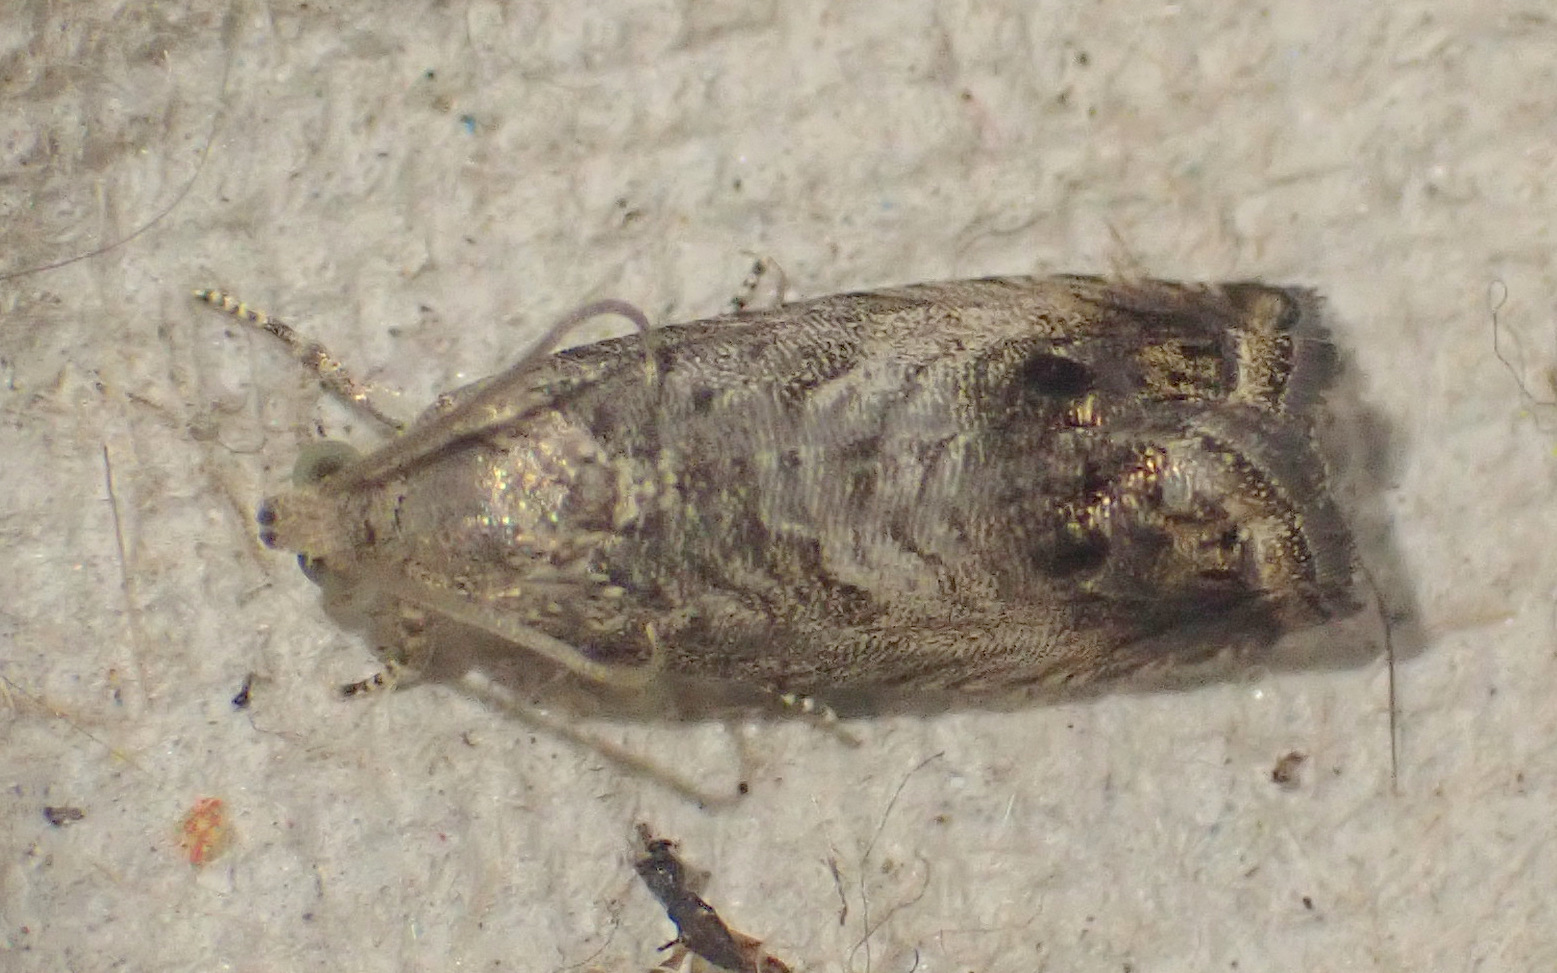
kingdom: Animalia
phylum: Arthropoda
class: Insecta
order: Lepidoptera
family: Tortricidae
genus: Cydia
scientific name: Cydia splendana
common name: De: kastanienwickler, eichenwickler es: oruga de la castaña fr: carpocapse des châtaignes it: cidia o tortrice tardiva delle castagne pt: bichado das castanhas gb: acorn moth, chestnut fruit tortrix
